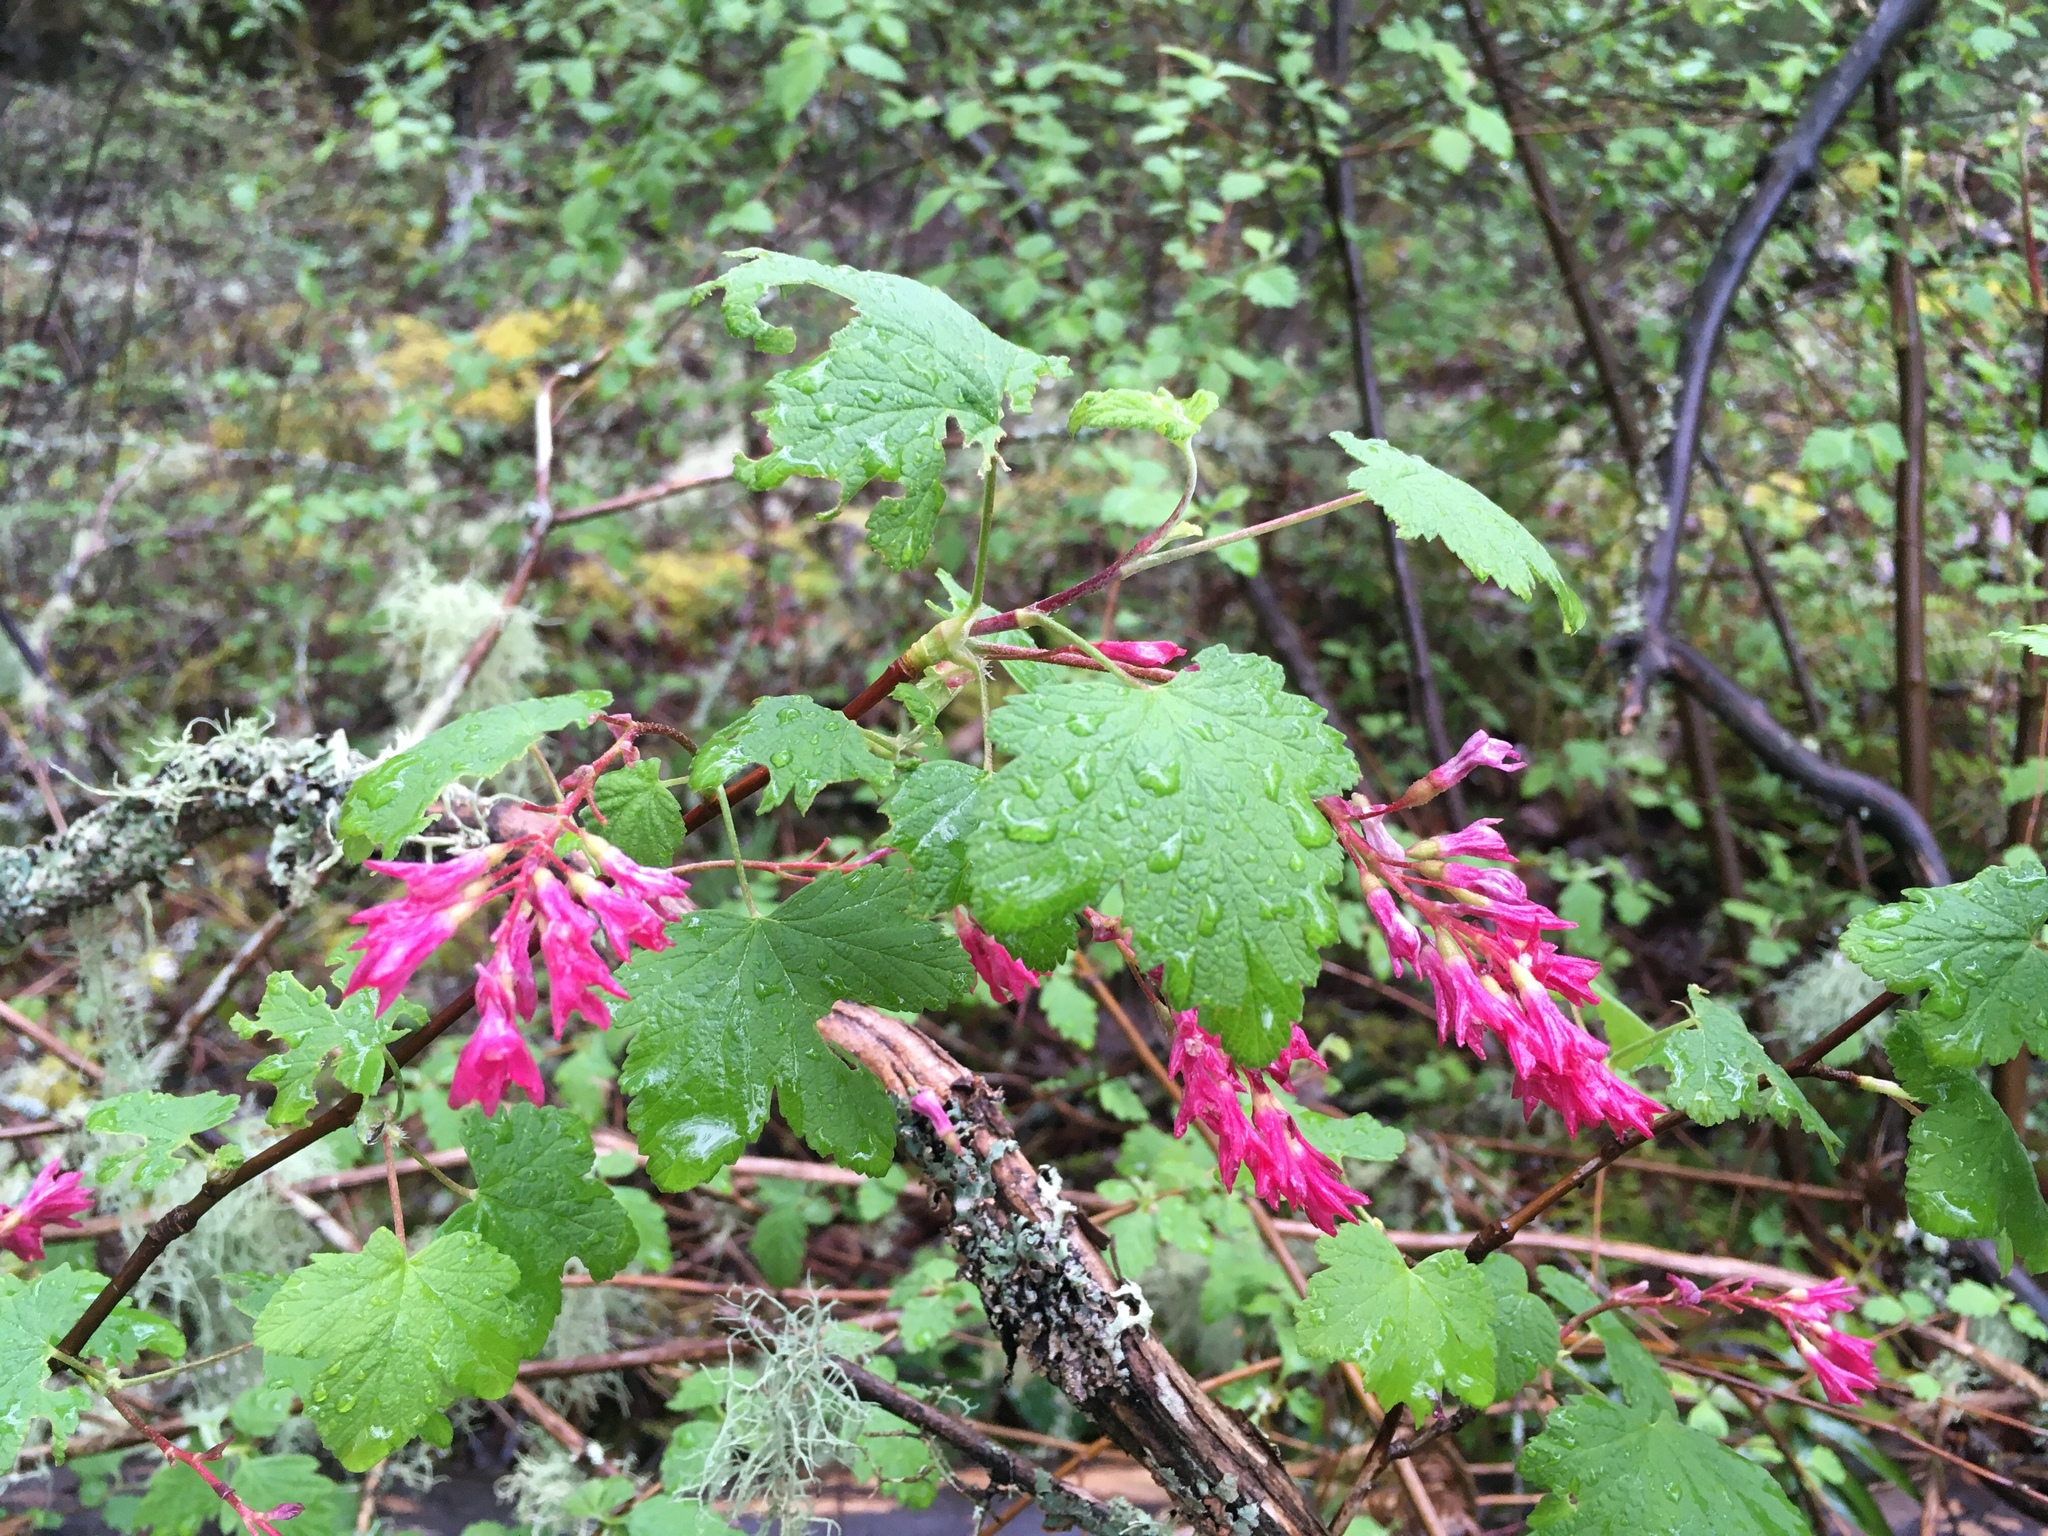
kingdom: Plantae
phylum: Tracheophyta
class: Magnoliopsida
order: Saxifragales
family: Grossulariaceae
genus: Ribes
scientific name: Ribes sanguineum
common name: Flowering currant
